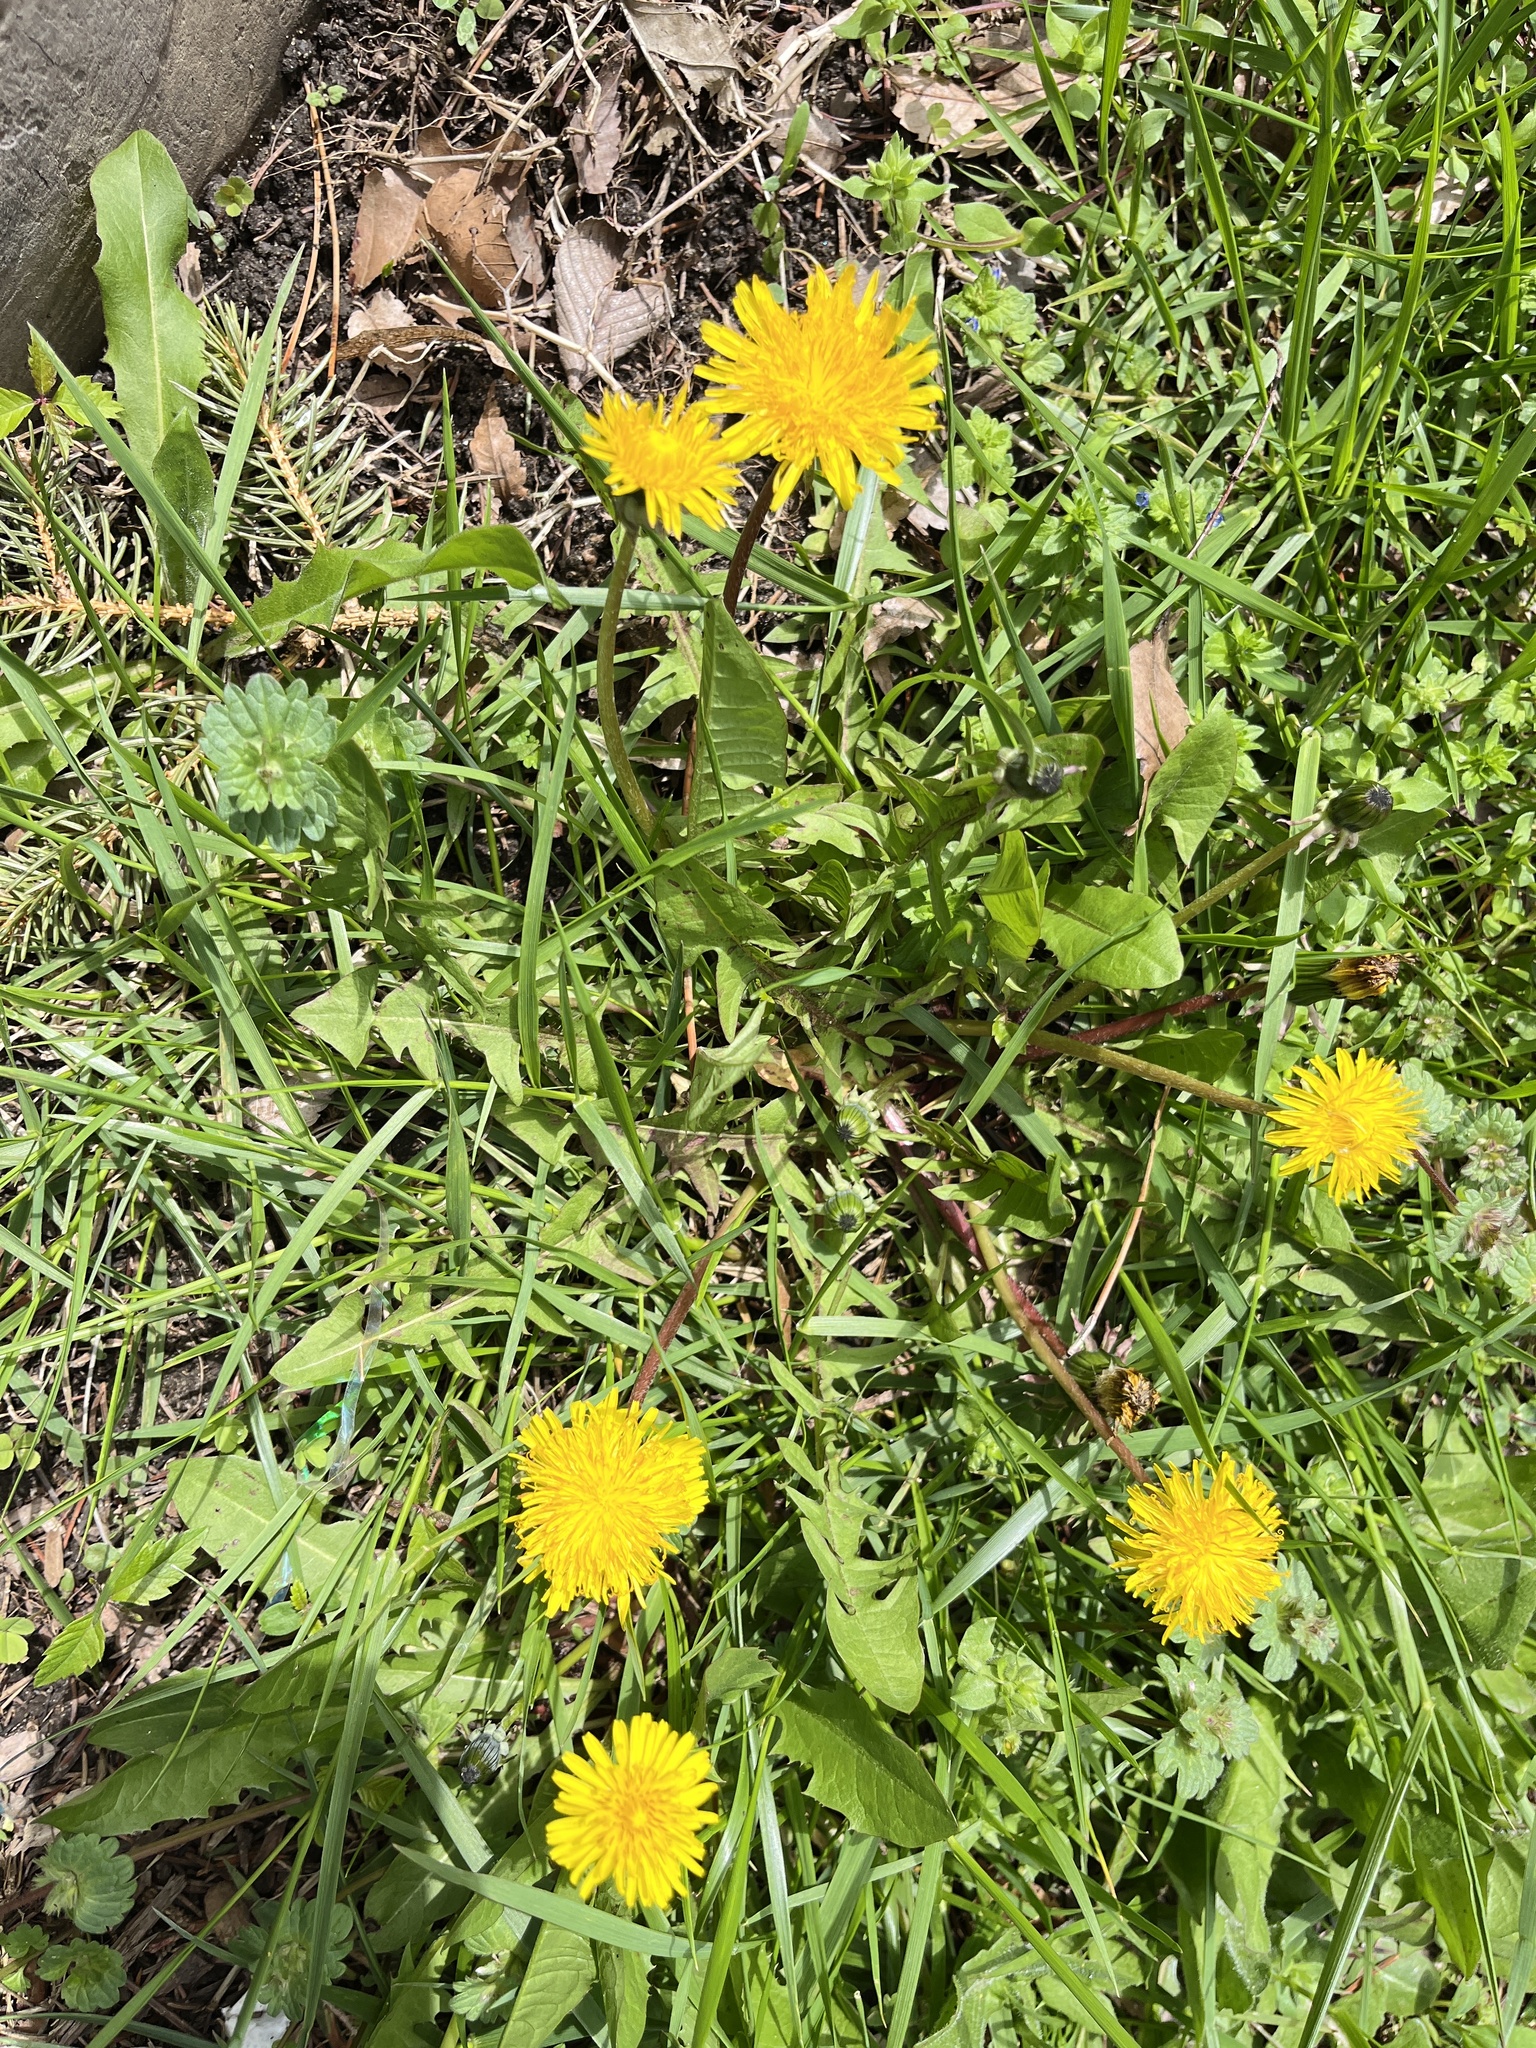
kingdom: Plantae
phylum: Tracheophyta
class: Magnoliopsida
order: Asterales
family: Asteraceae
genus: Taraxacum
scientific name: Taraxacum officinale
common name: Common dandelion
